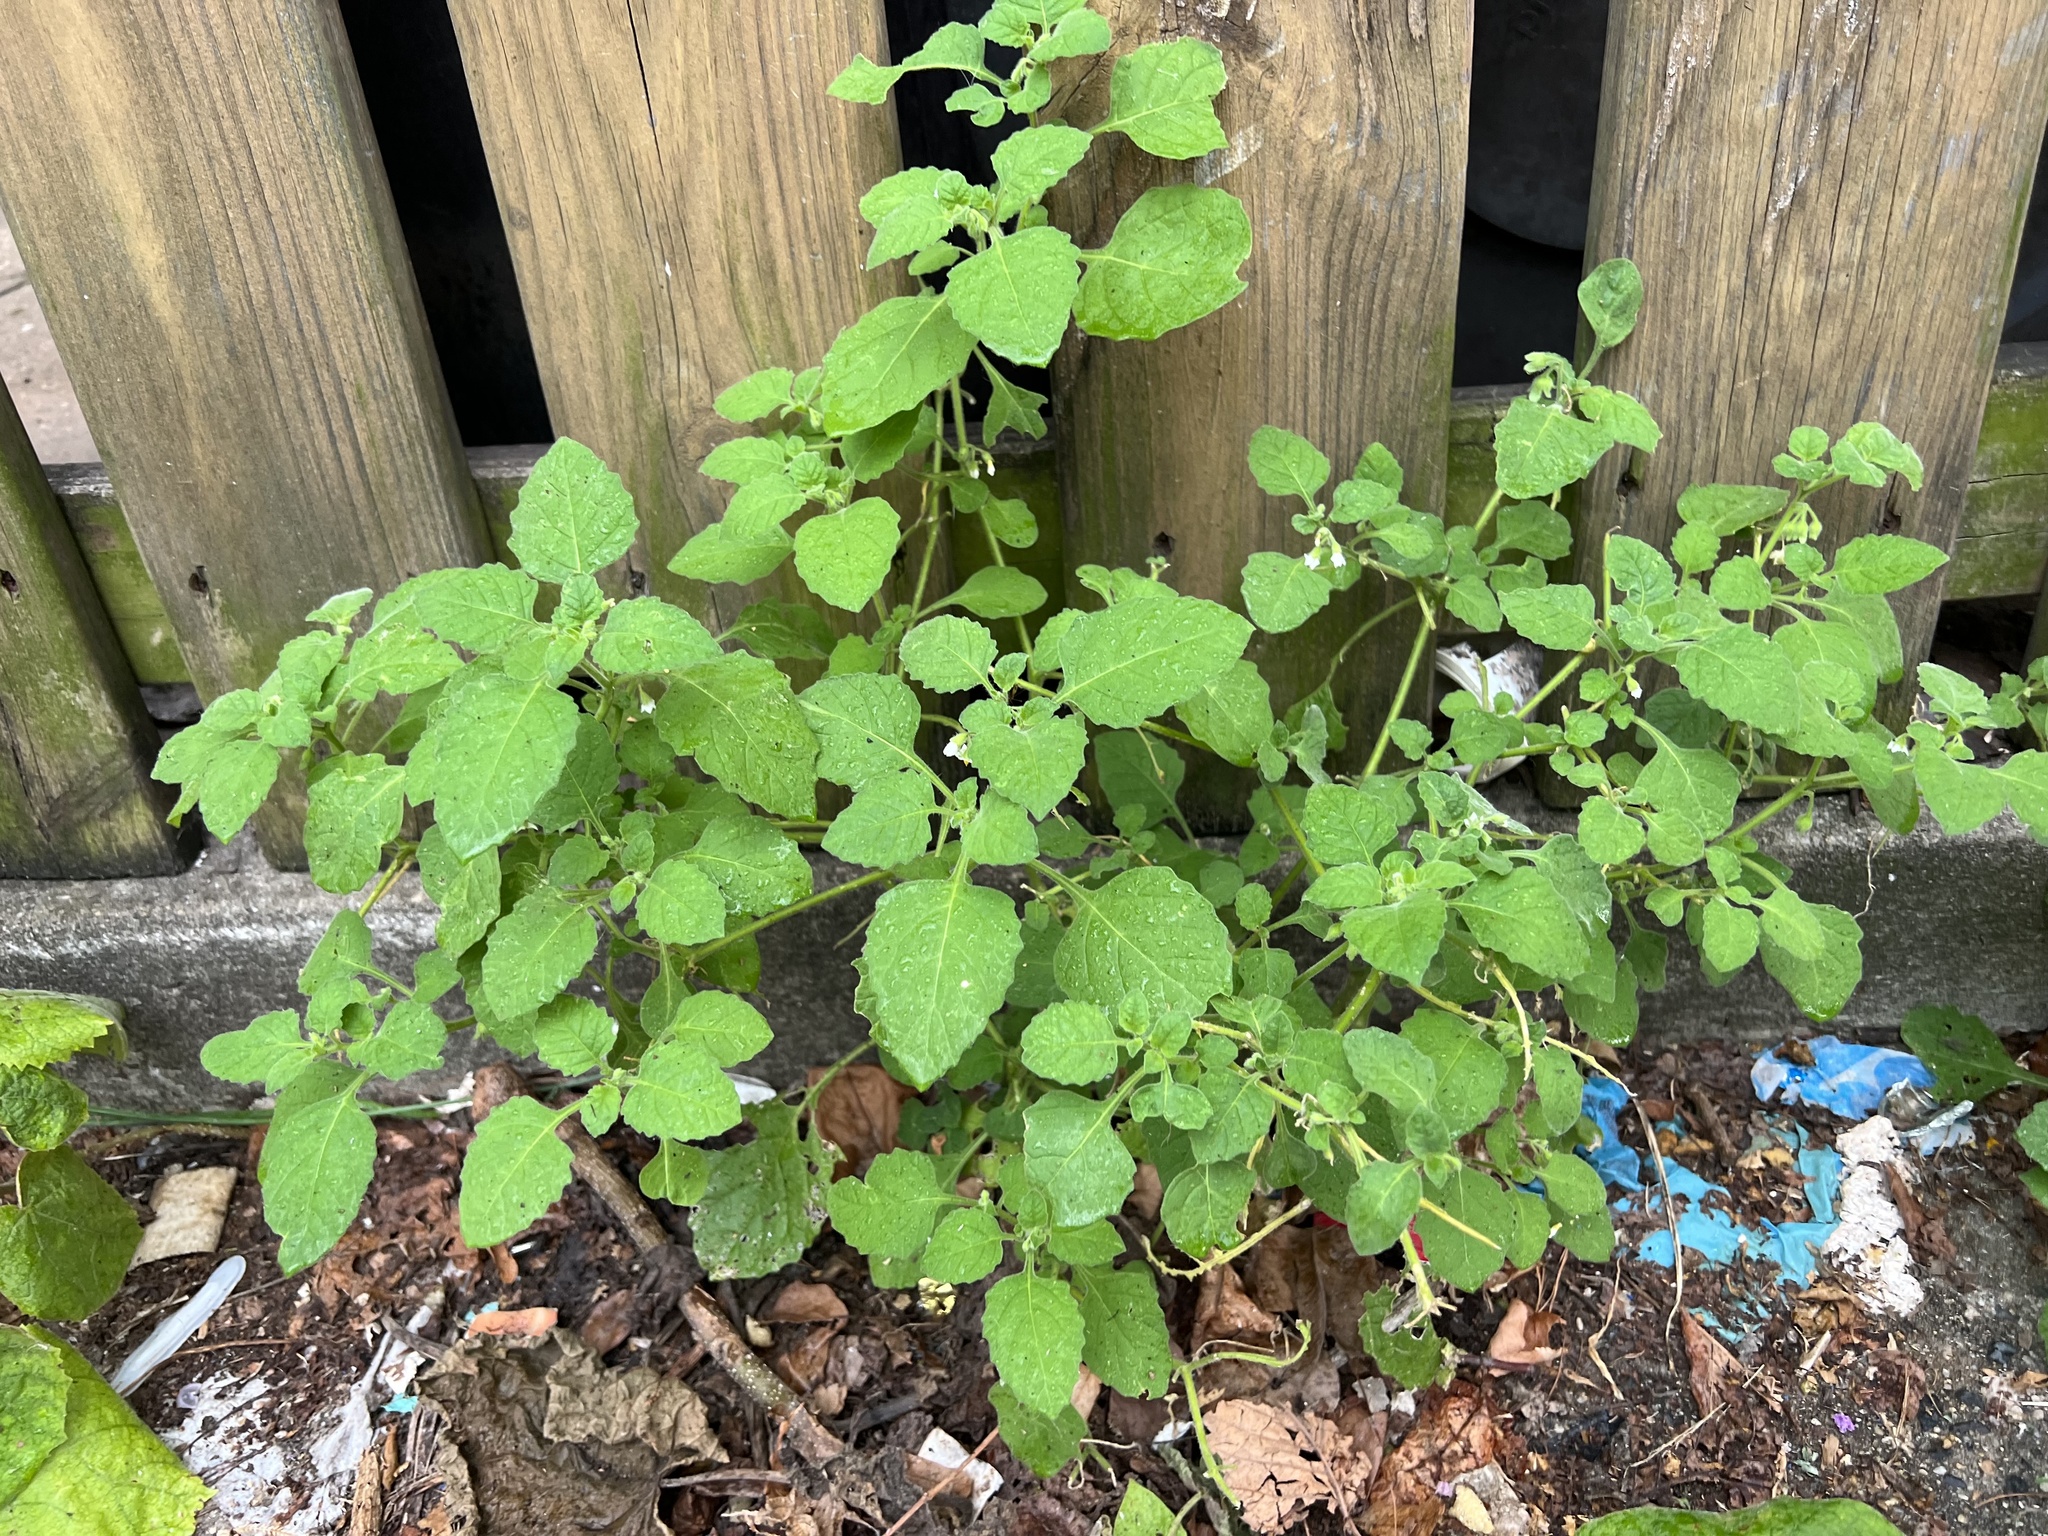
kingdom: Plantae
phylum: Tracheophyta
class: Magnoliopsida
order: Solanales
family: Solanaceae
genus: Solanum
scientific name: Solanum sarrachoides
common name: Leafy-fruited nightshade
